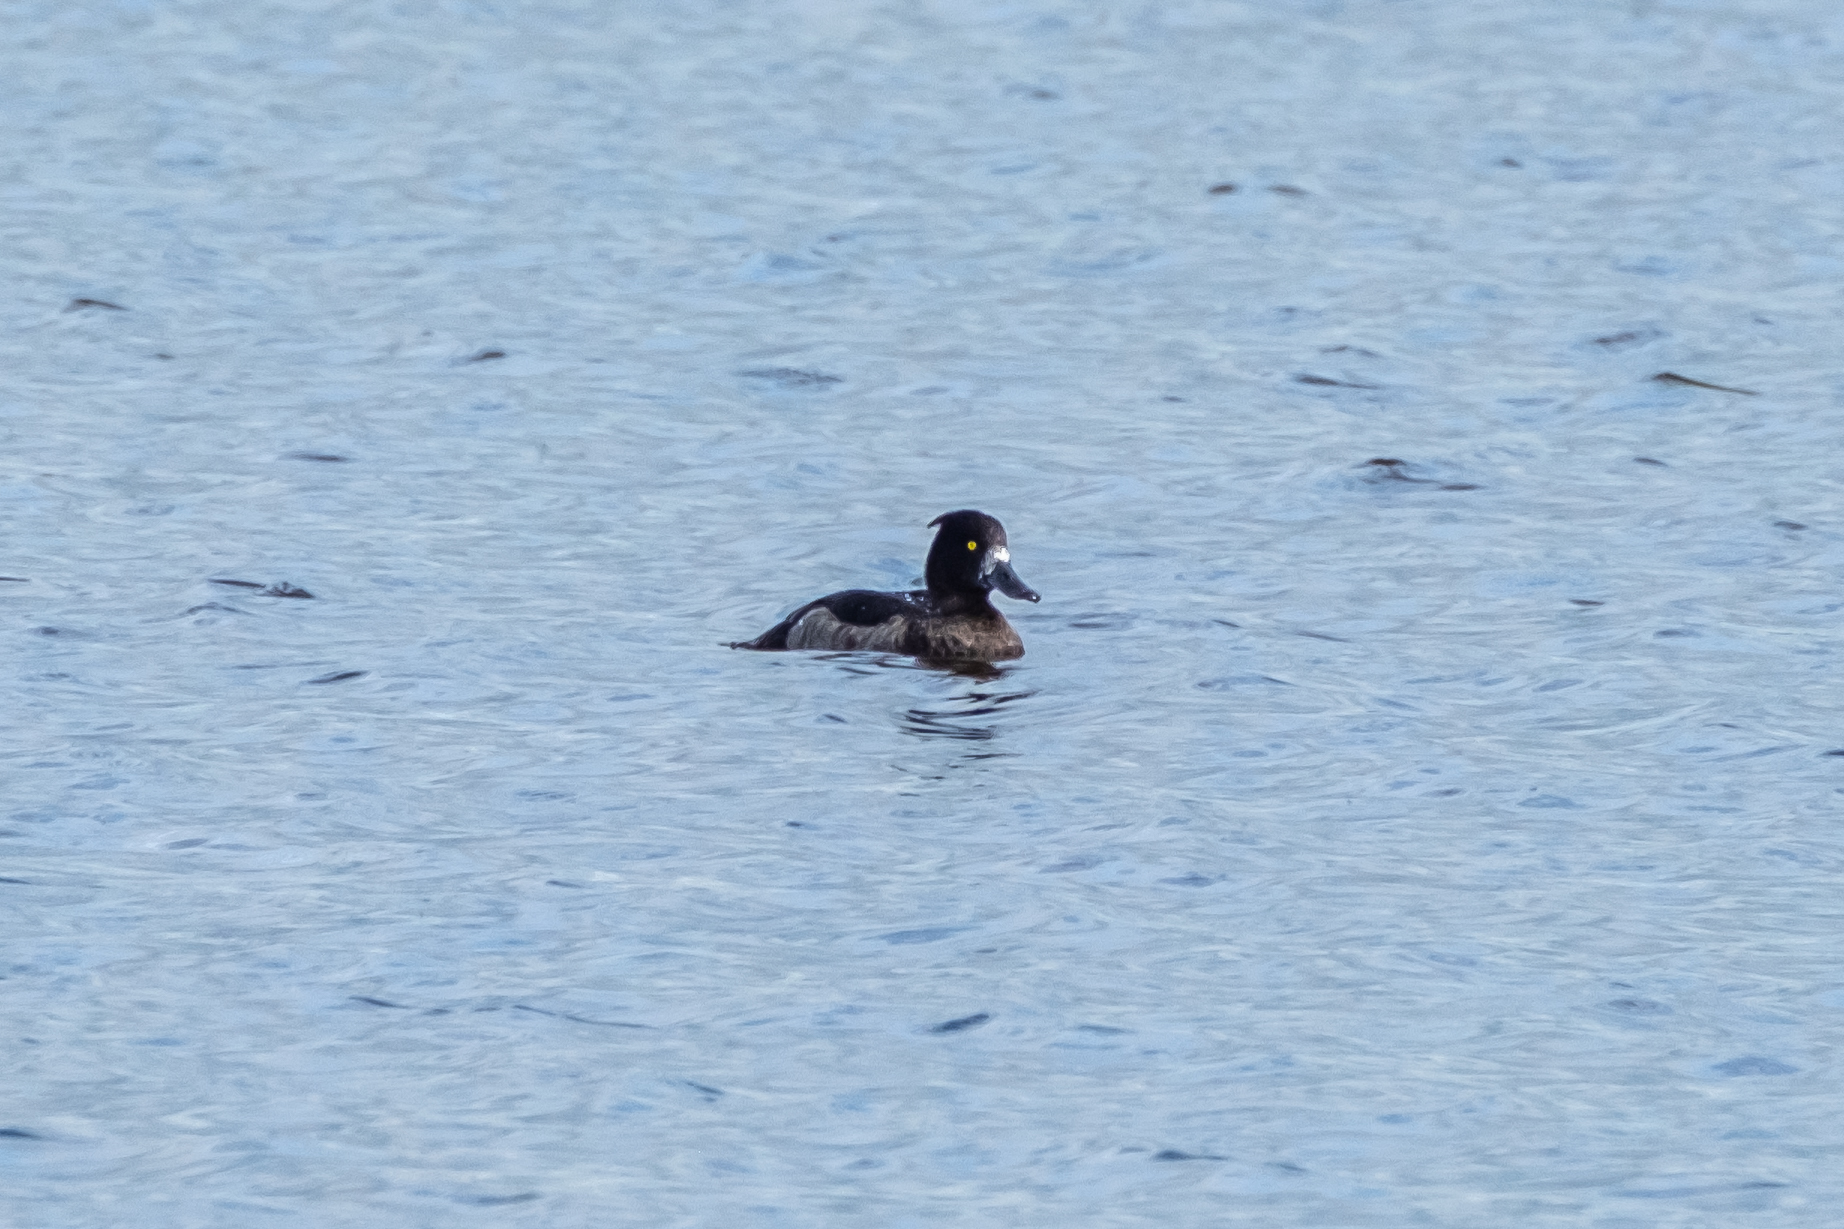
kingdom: Animalia
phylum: Chordata
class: Aves
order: Anseriformes
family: Anatidae
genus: Aythya
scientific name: Aythya fuligula
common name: Tufted duck
